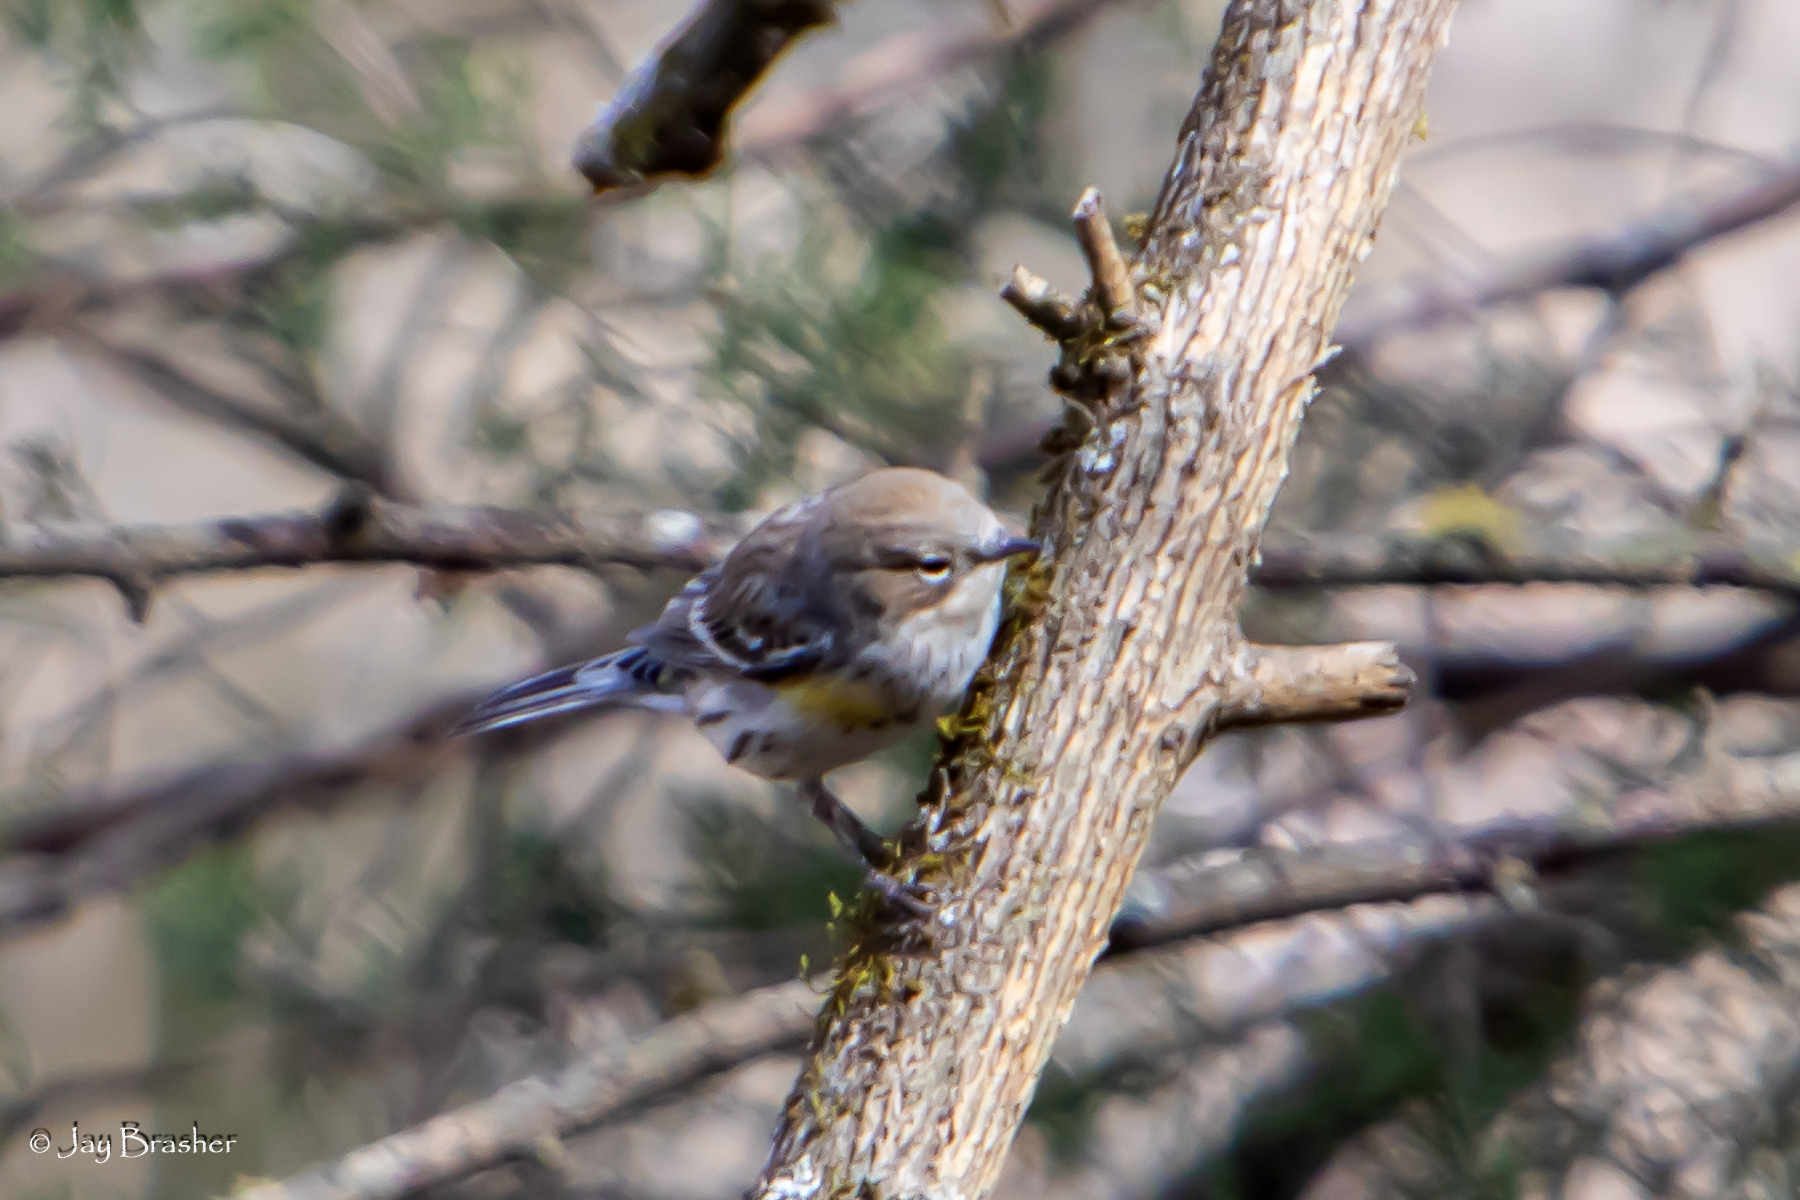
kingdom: Animalia
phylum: Chordata
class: Aves
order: Passeriformes
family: Parulidae
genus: Setophaga
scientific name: Setophaga coronata
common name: Myrtle warbler
